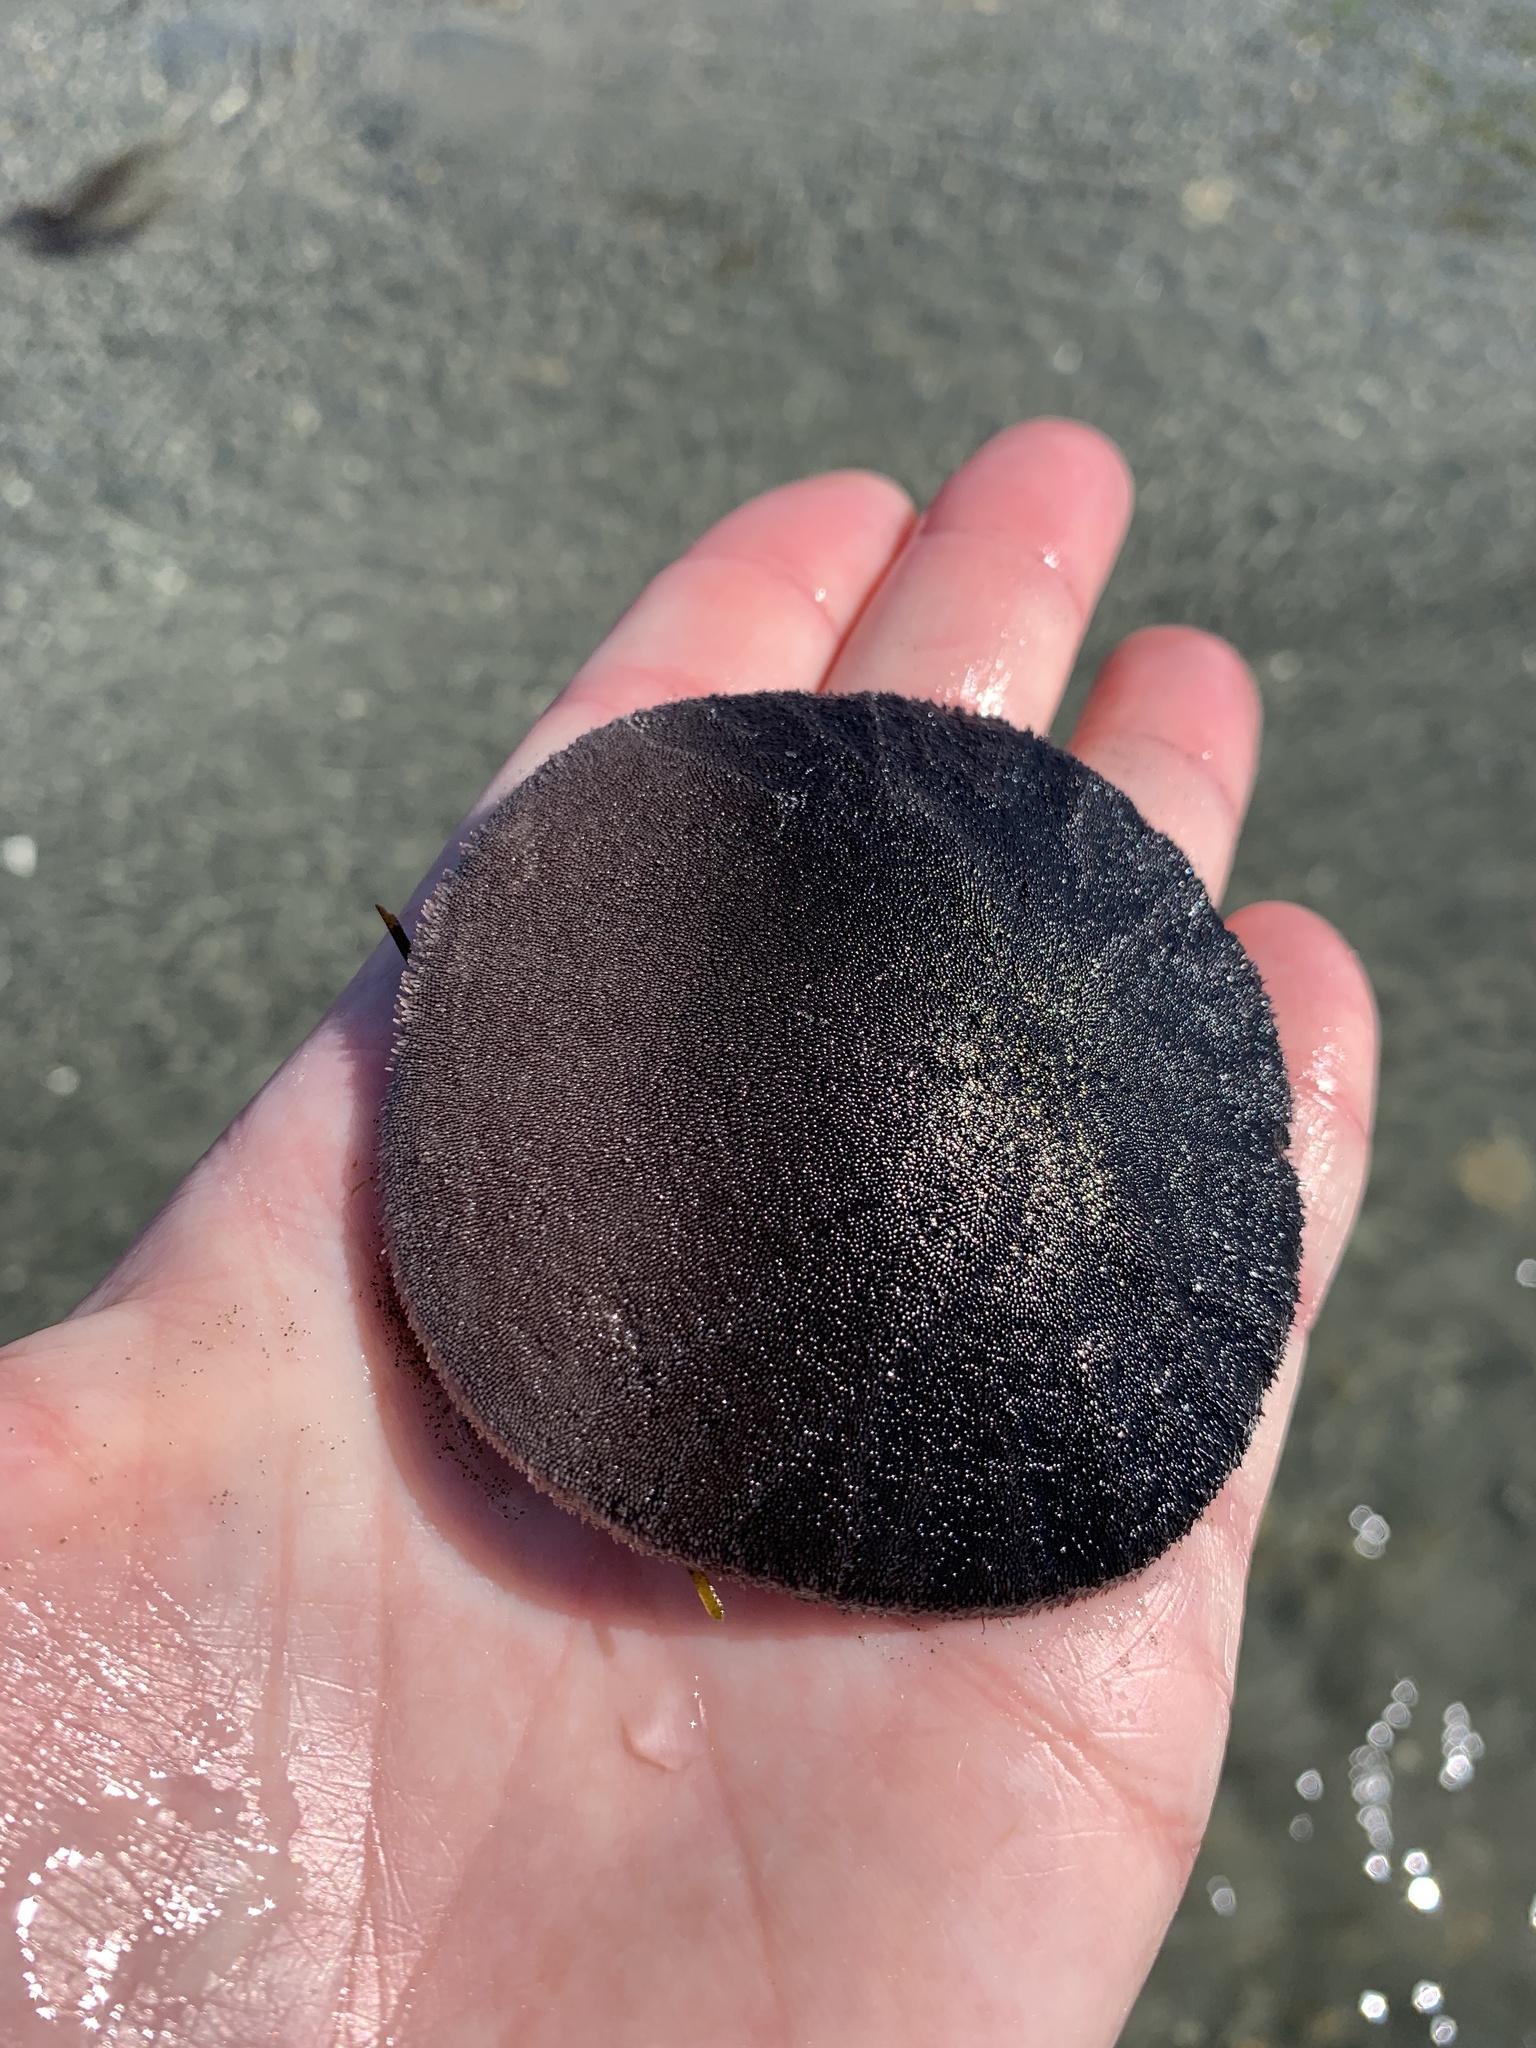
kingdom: Animalia
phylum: Echinodermata
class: Echinoidea
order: Echinolampadacea
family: Dendrasteridae
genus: Dendraster
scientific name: Dendraster excentricus
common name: Eccentric sand dollar sea urchin
